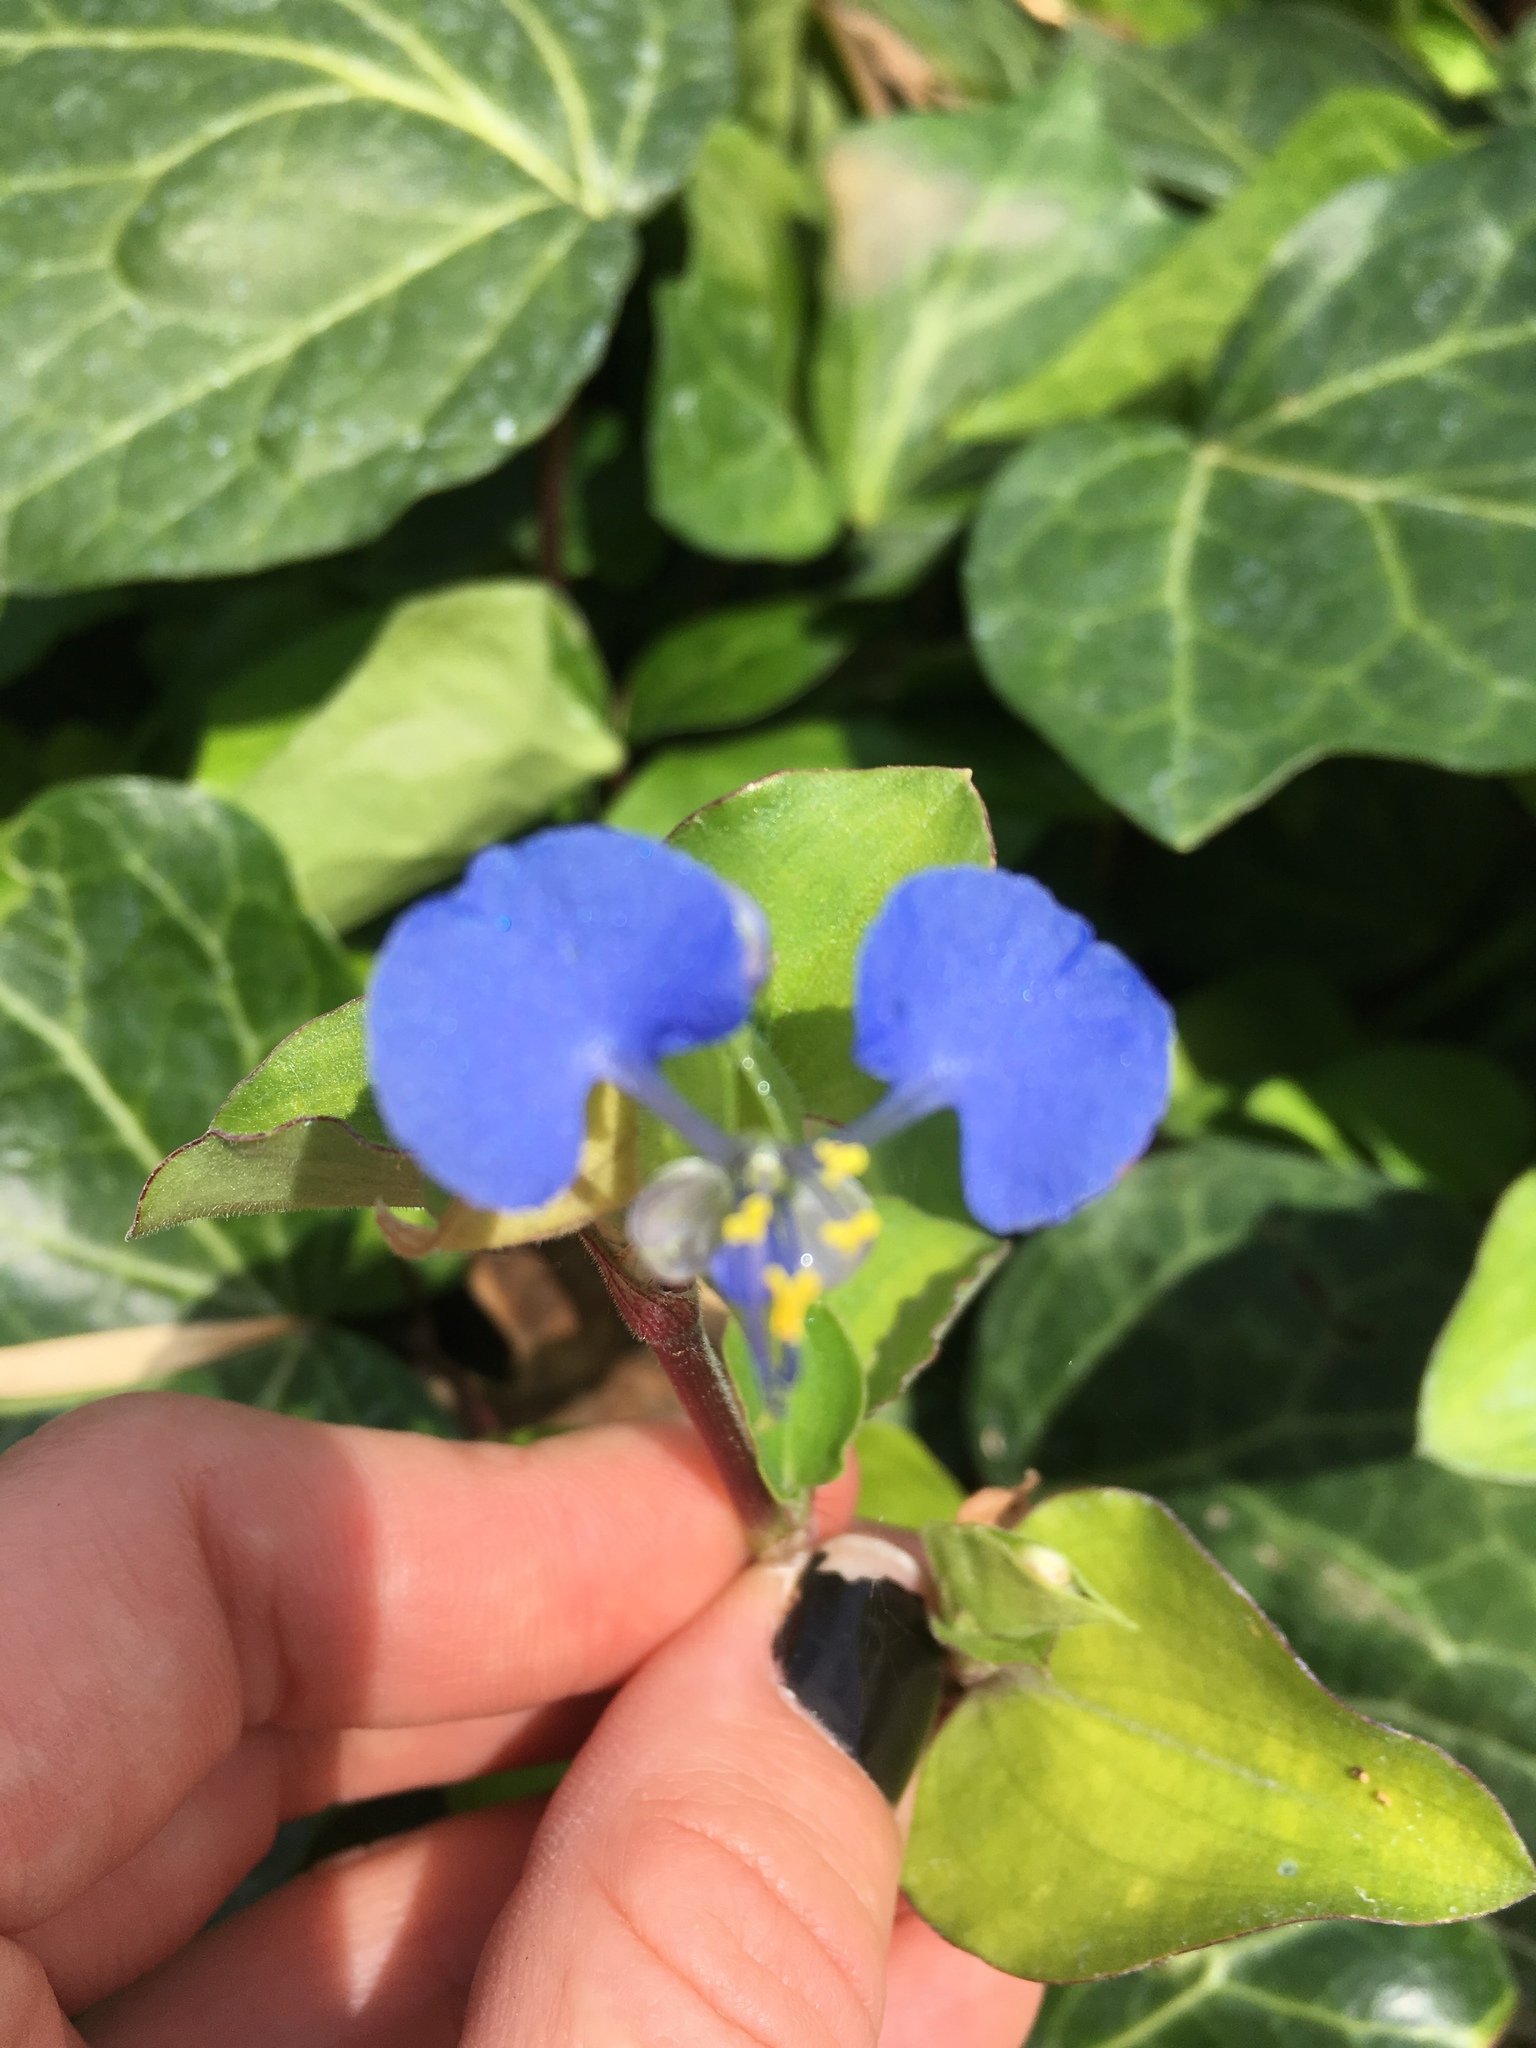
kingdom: Plantae
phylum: Tracheophyta
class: Liliopsida
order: Commelinales
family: Commelinaceae
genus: Commelina
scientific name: Commelina benghalensis
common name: Jio
